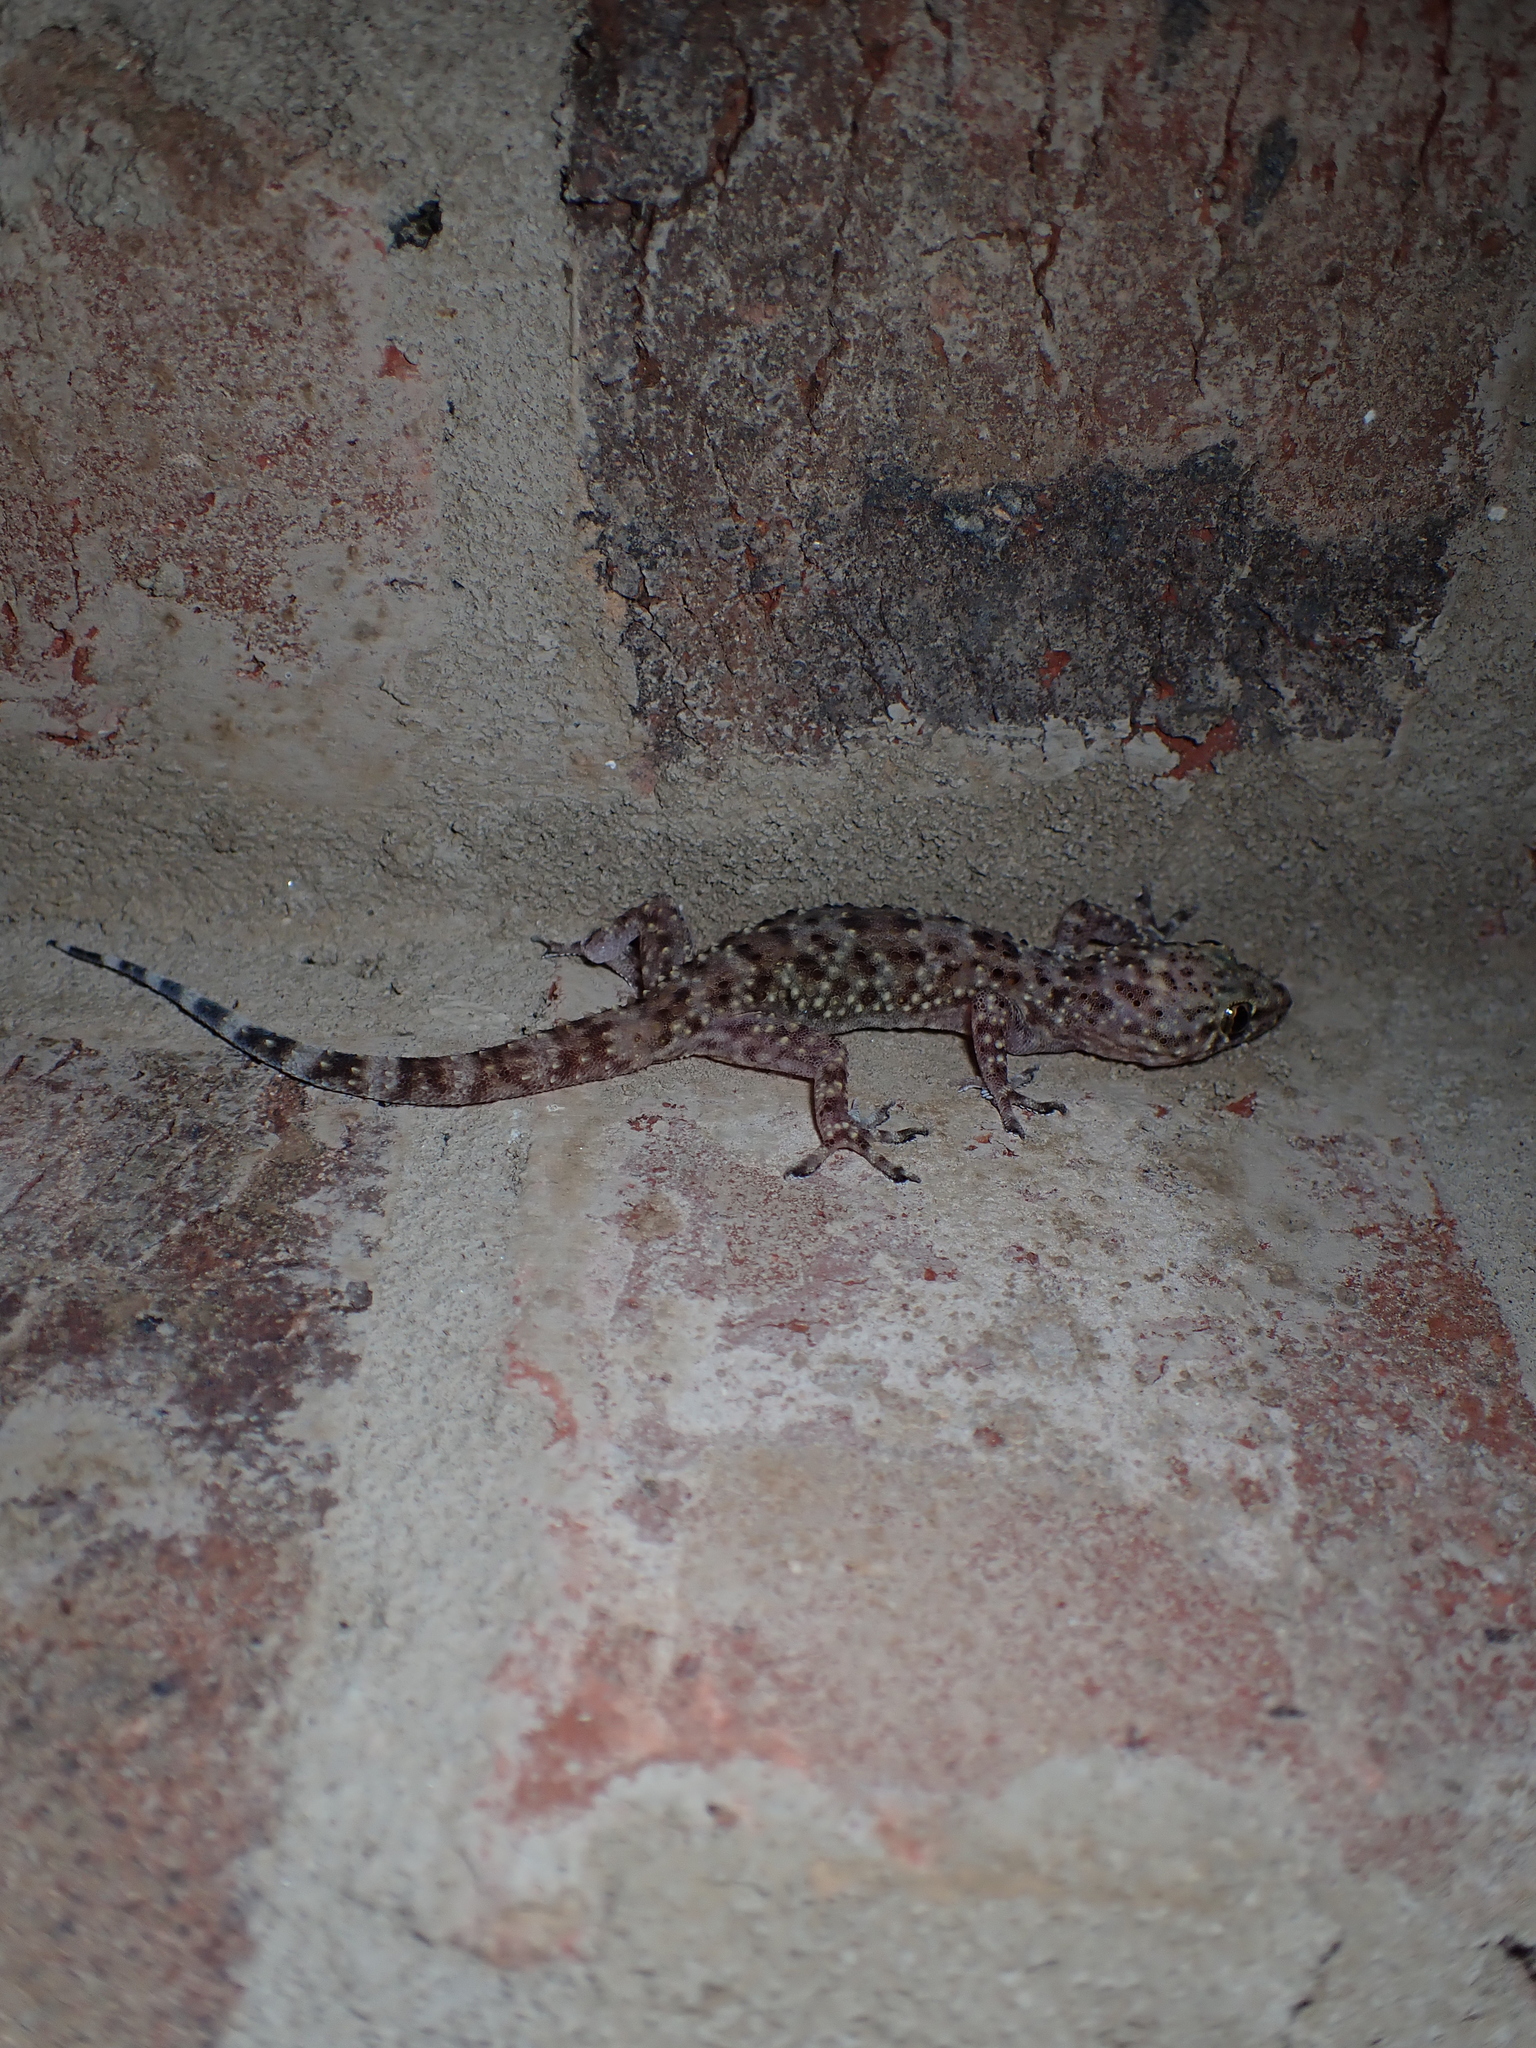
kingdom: Animalia
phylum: Chordata
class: Squamata
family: Gekkonidae
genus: Hemidactylus
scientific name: Hemidactylus turcicus
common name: Turkish gecko
